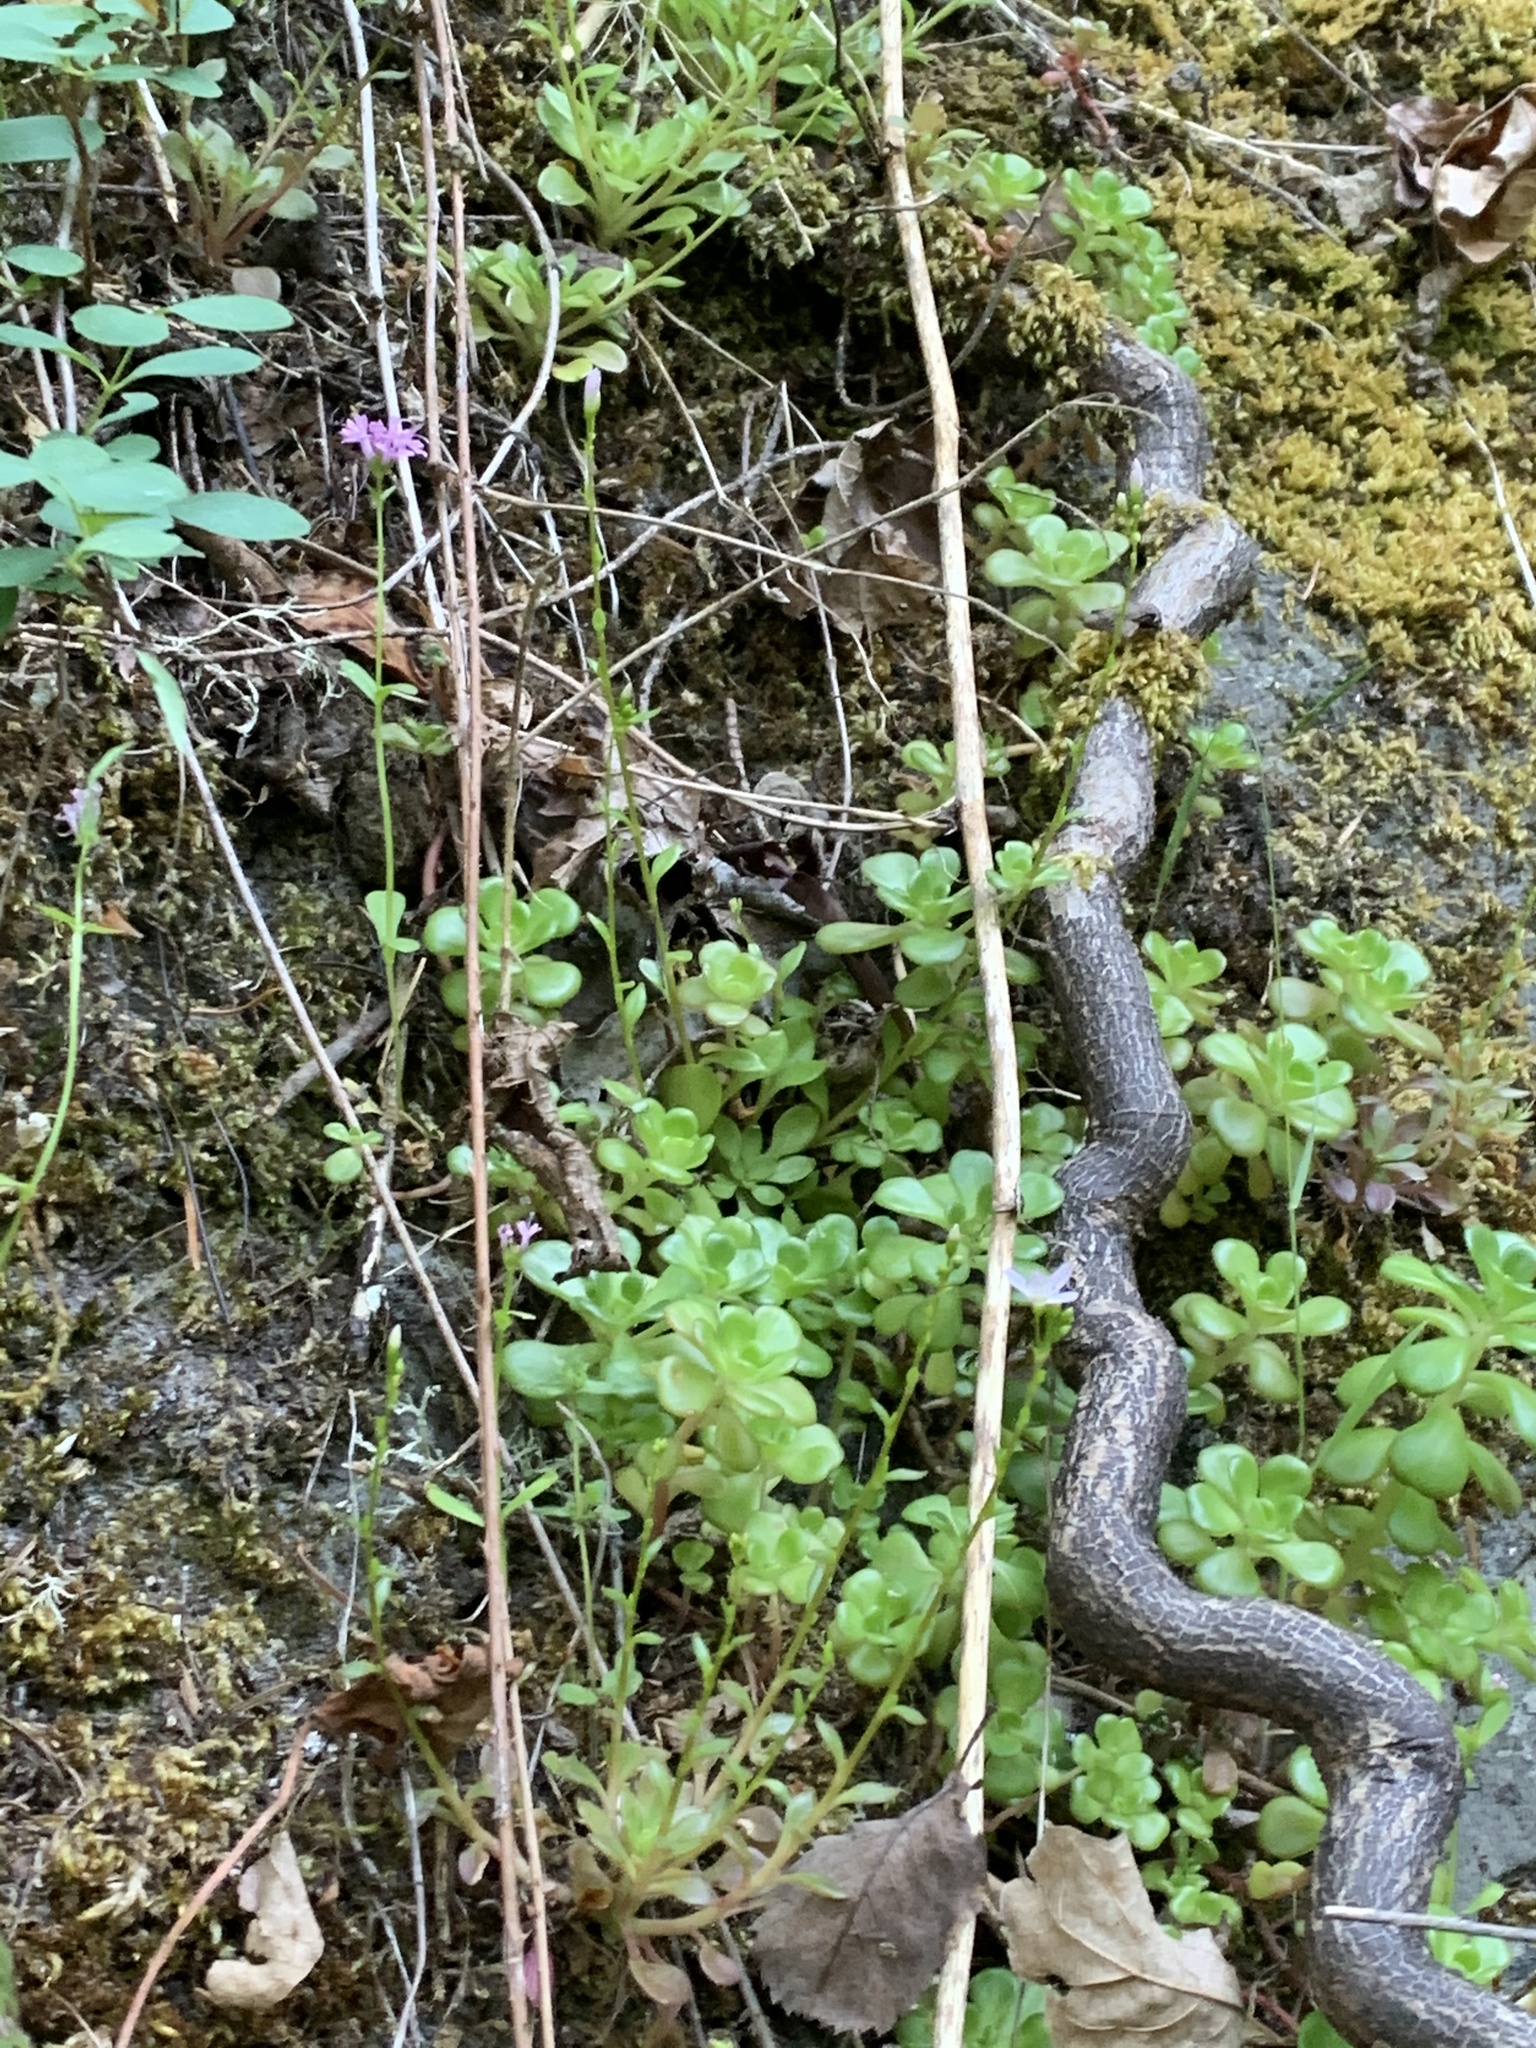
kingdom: Plantae
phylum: Tracheophyta
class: Magnoliopsida
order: Saxifragales
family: Crassulaceae
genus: Sedum
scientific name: Sedum oreganum
